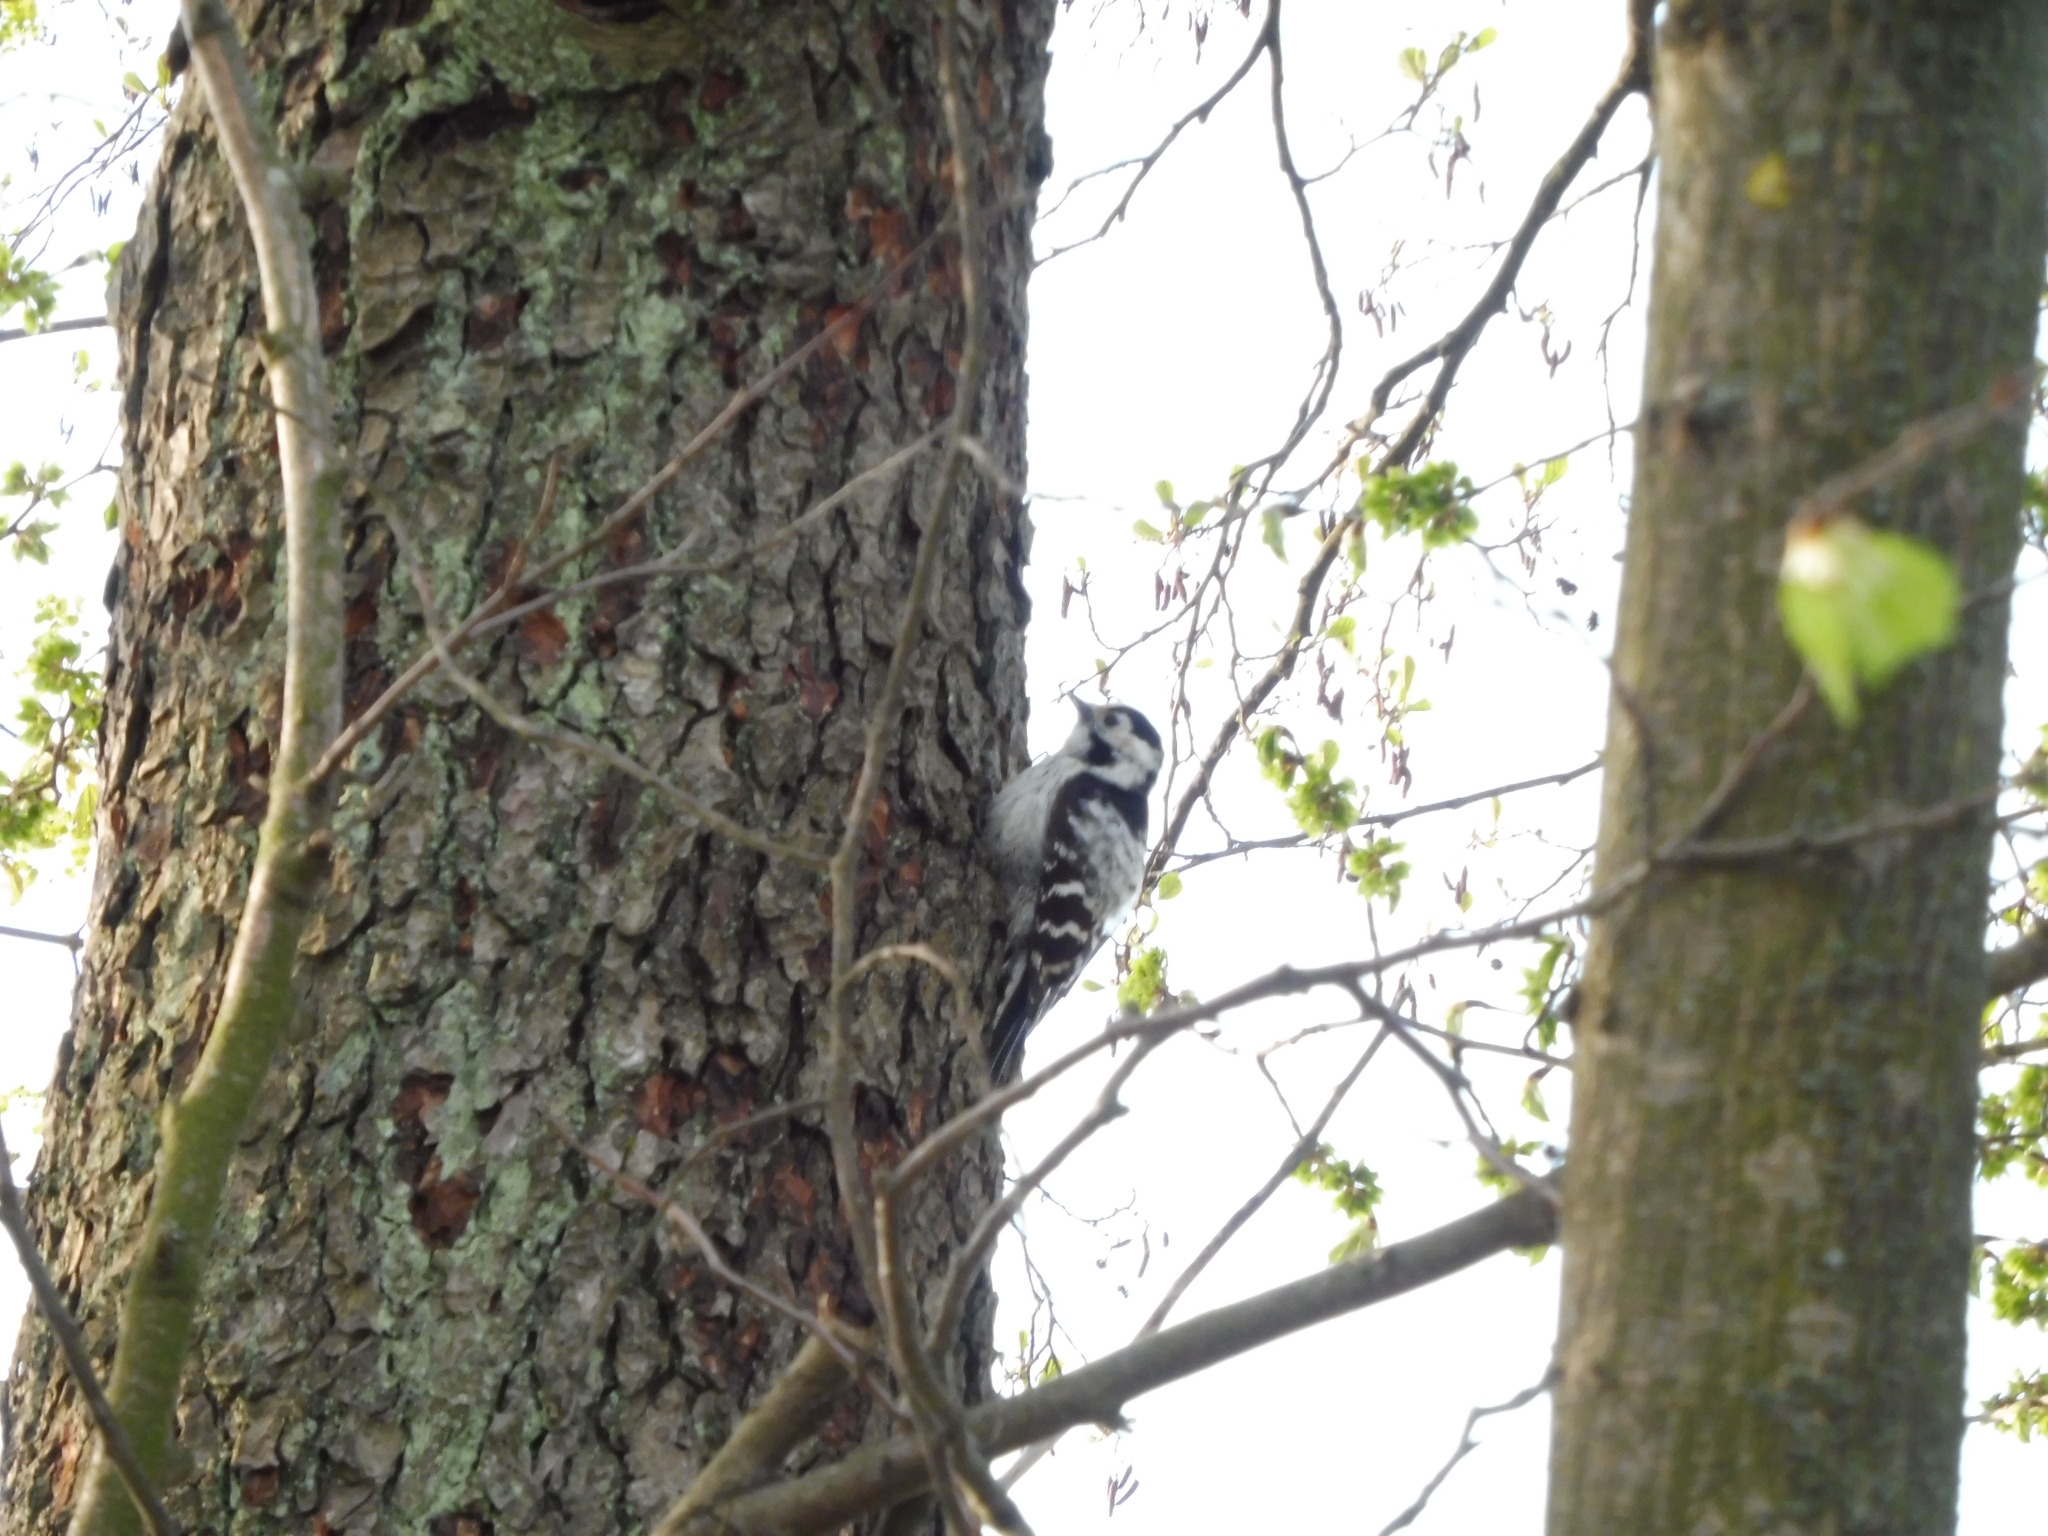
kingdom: Animalia
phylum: Chordata
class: Aves
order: Piciformes
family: Picidae
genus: Dryobates
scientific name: Dryobates minor
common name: Lesser spotted woodpecker
